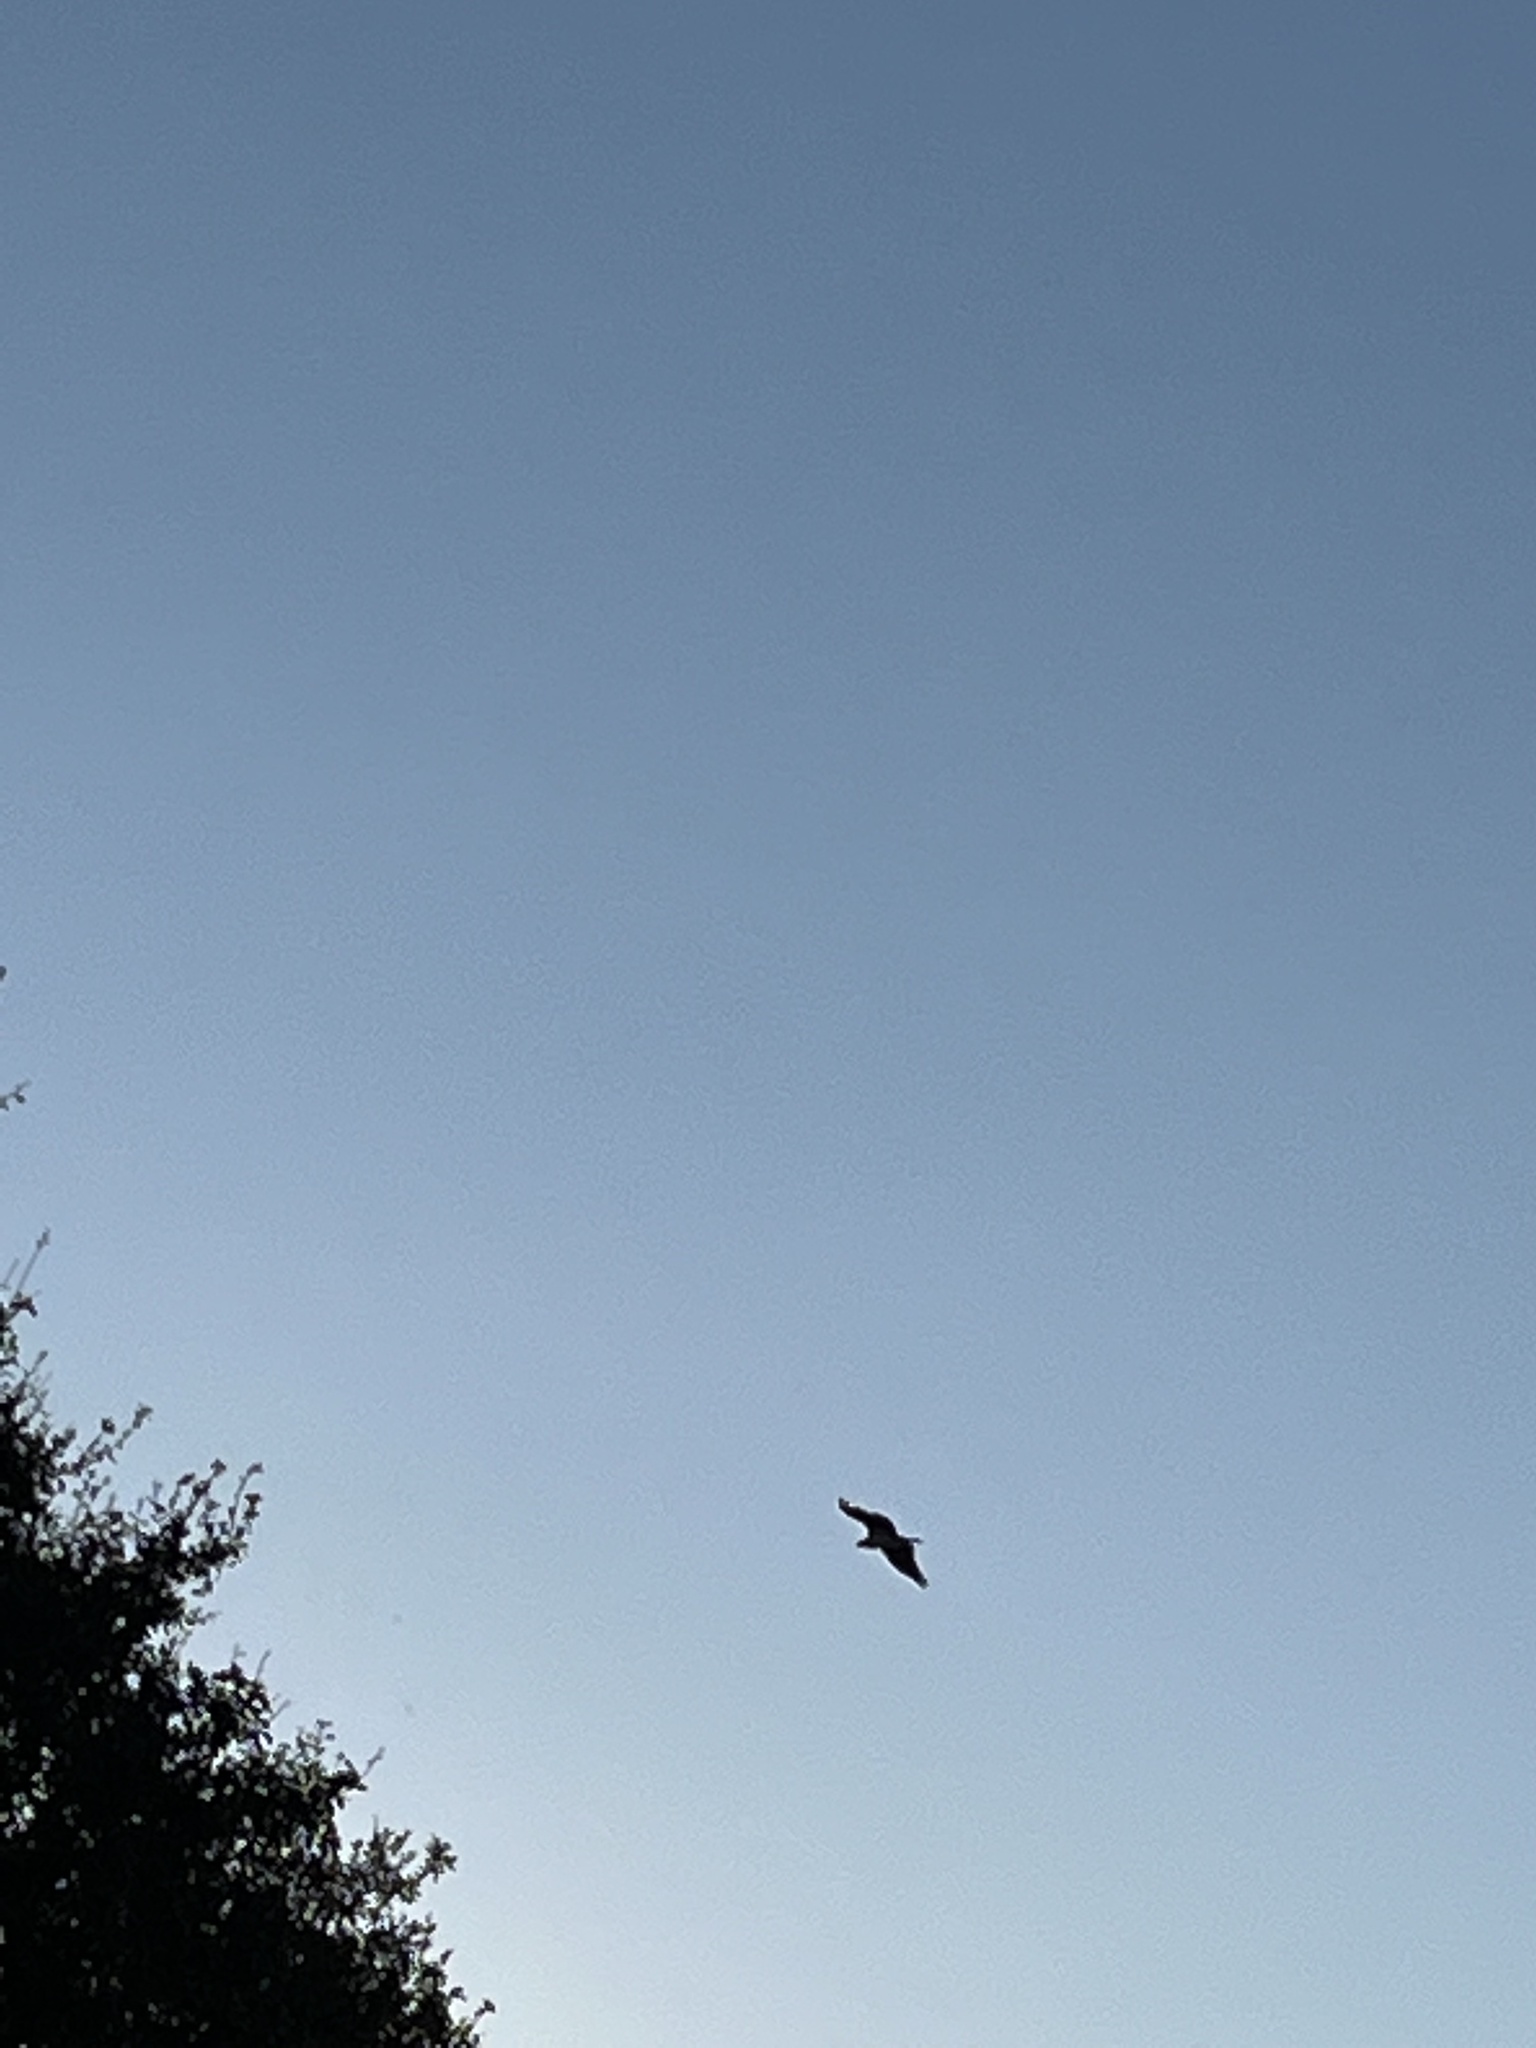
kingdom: Animalia
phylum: Chordata
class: Aves
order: Accipitriformes
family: Accipitridae
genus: Haliaeetus
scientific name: Haliaeetus leucocephalus
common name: Bald eagle
